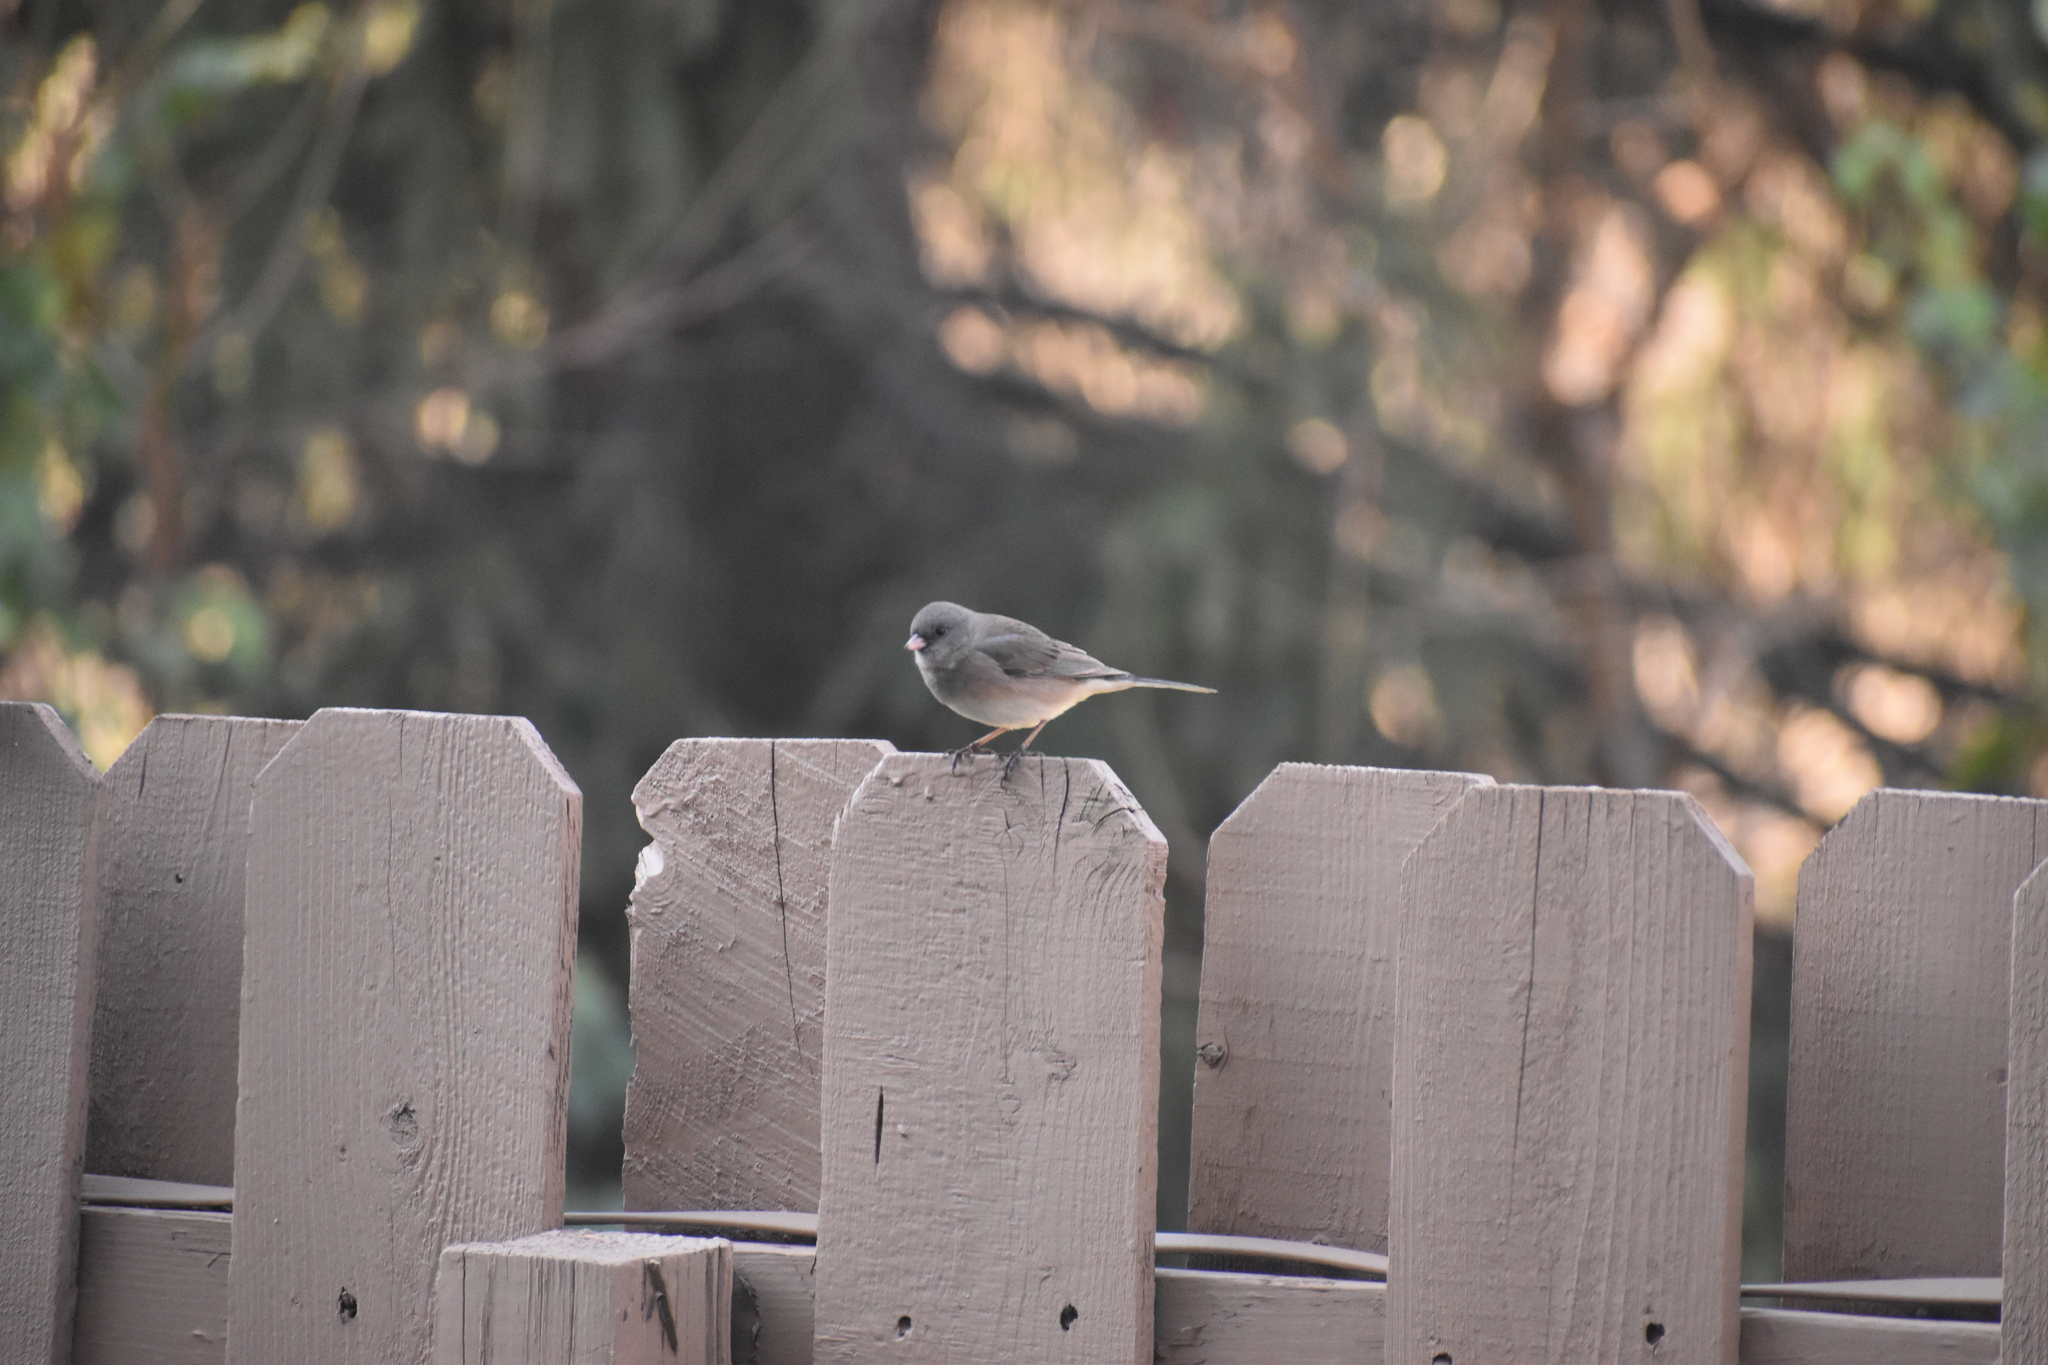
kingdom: Animalia
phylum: Chordata
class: Aves
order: Passeriformes
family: Passerellidae
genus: Junco
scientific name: Junco hyemalis
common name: Dark-eyed junco
